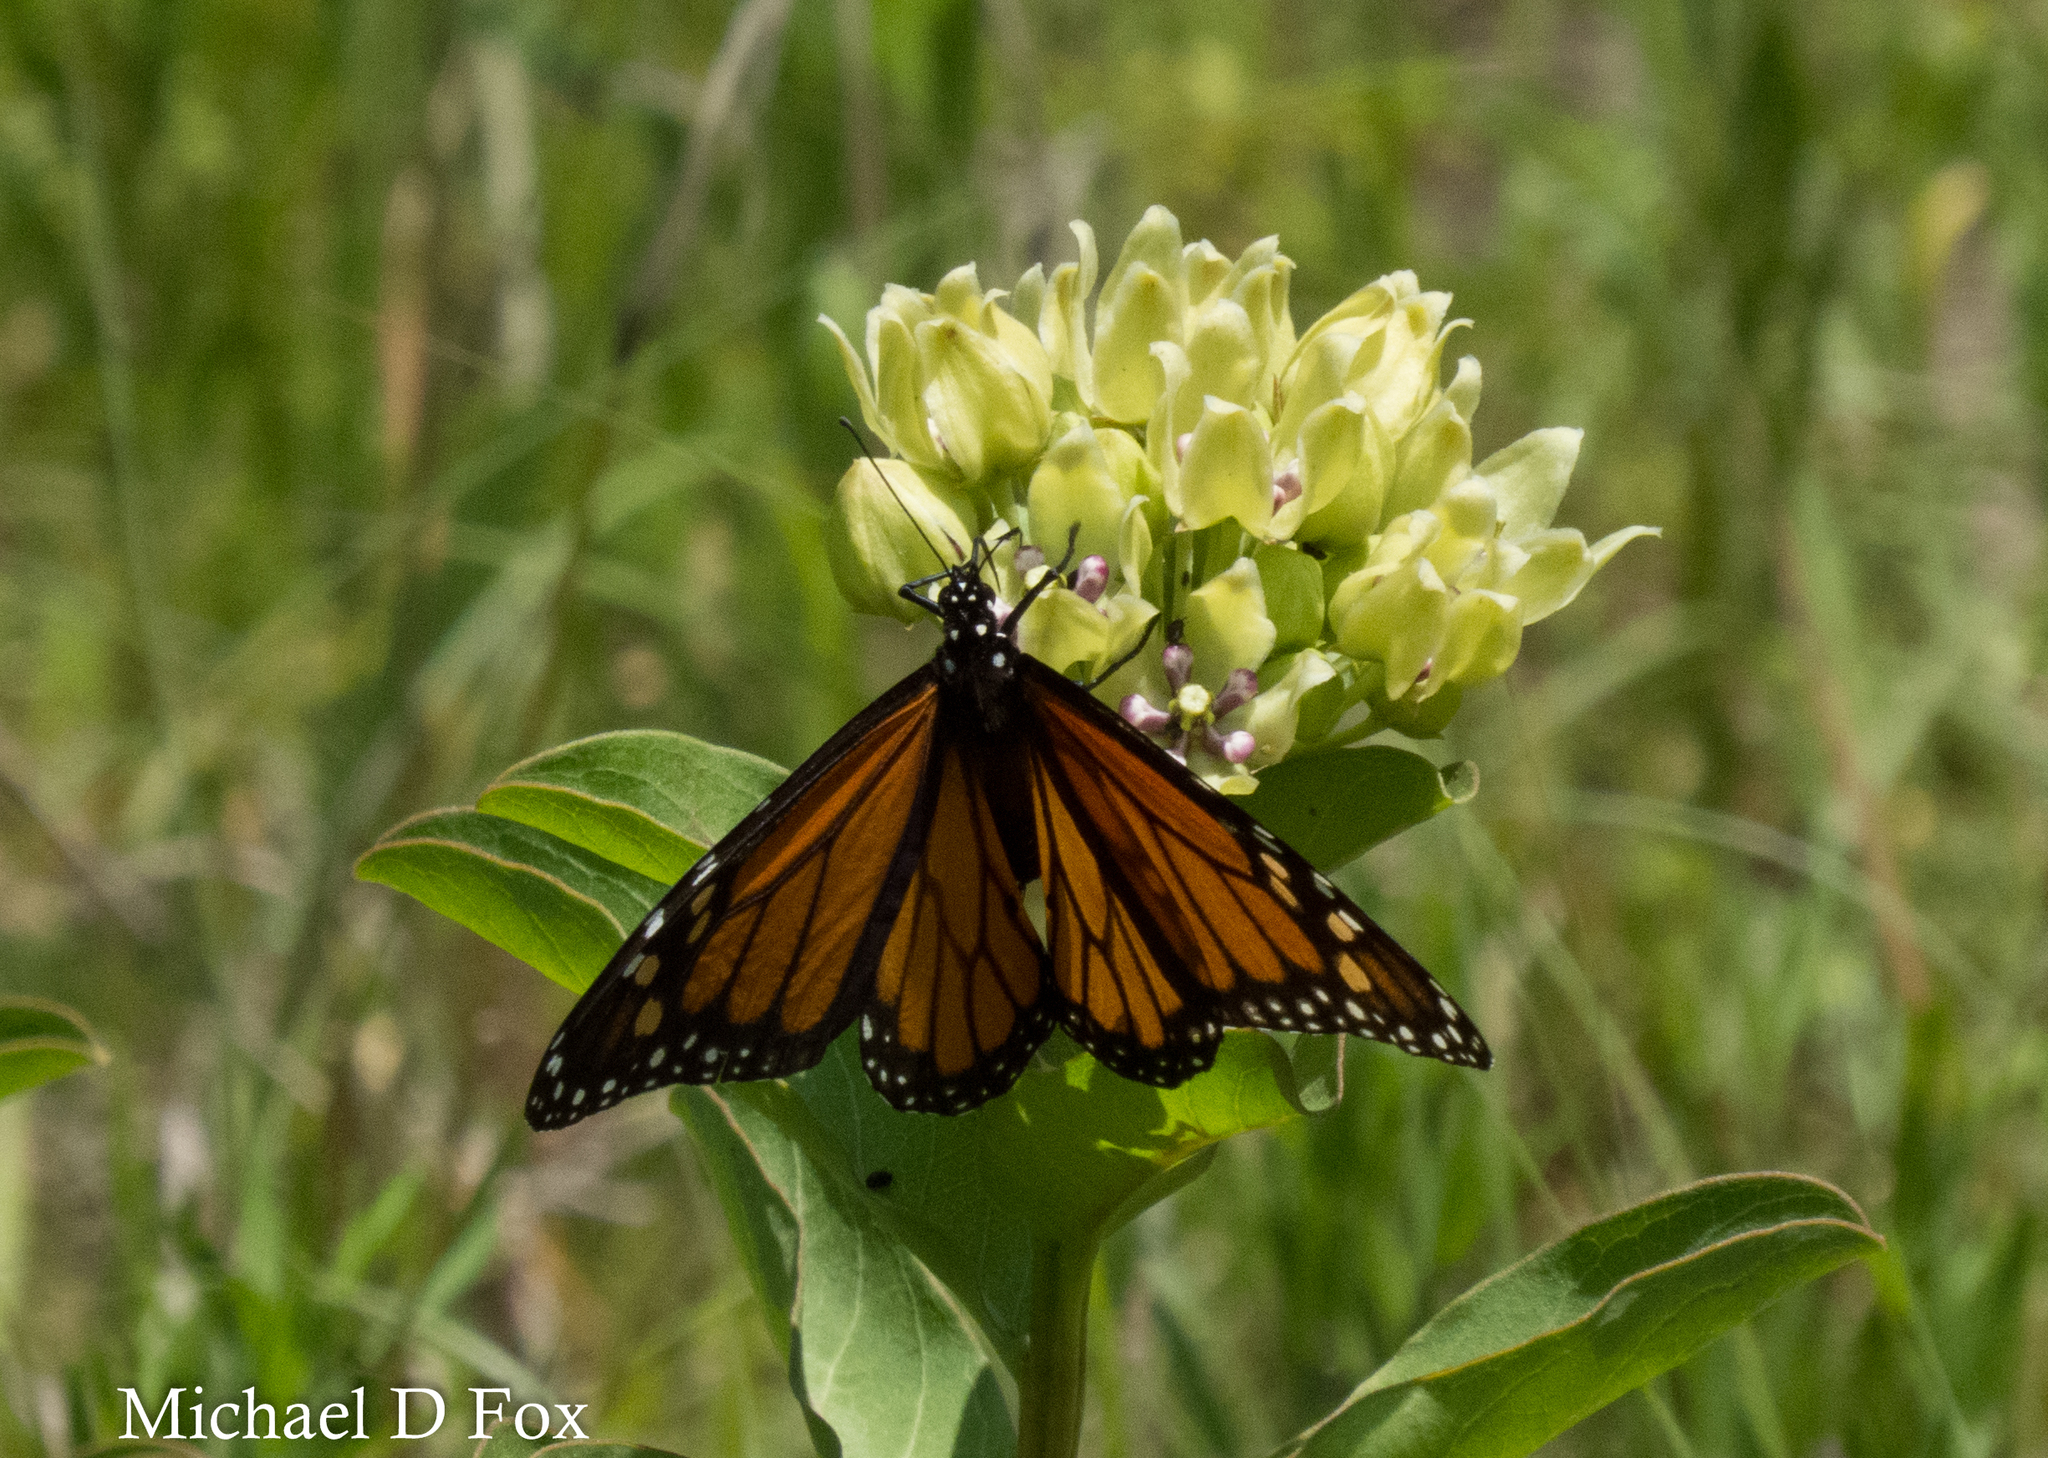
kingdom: Animalia
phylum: Arthropoda
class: Insecta
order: Lepidoptera
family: Nymphalidae
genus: Danaus
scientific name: Danaus plexippus
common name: Monarch
